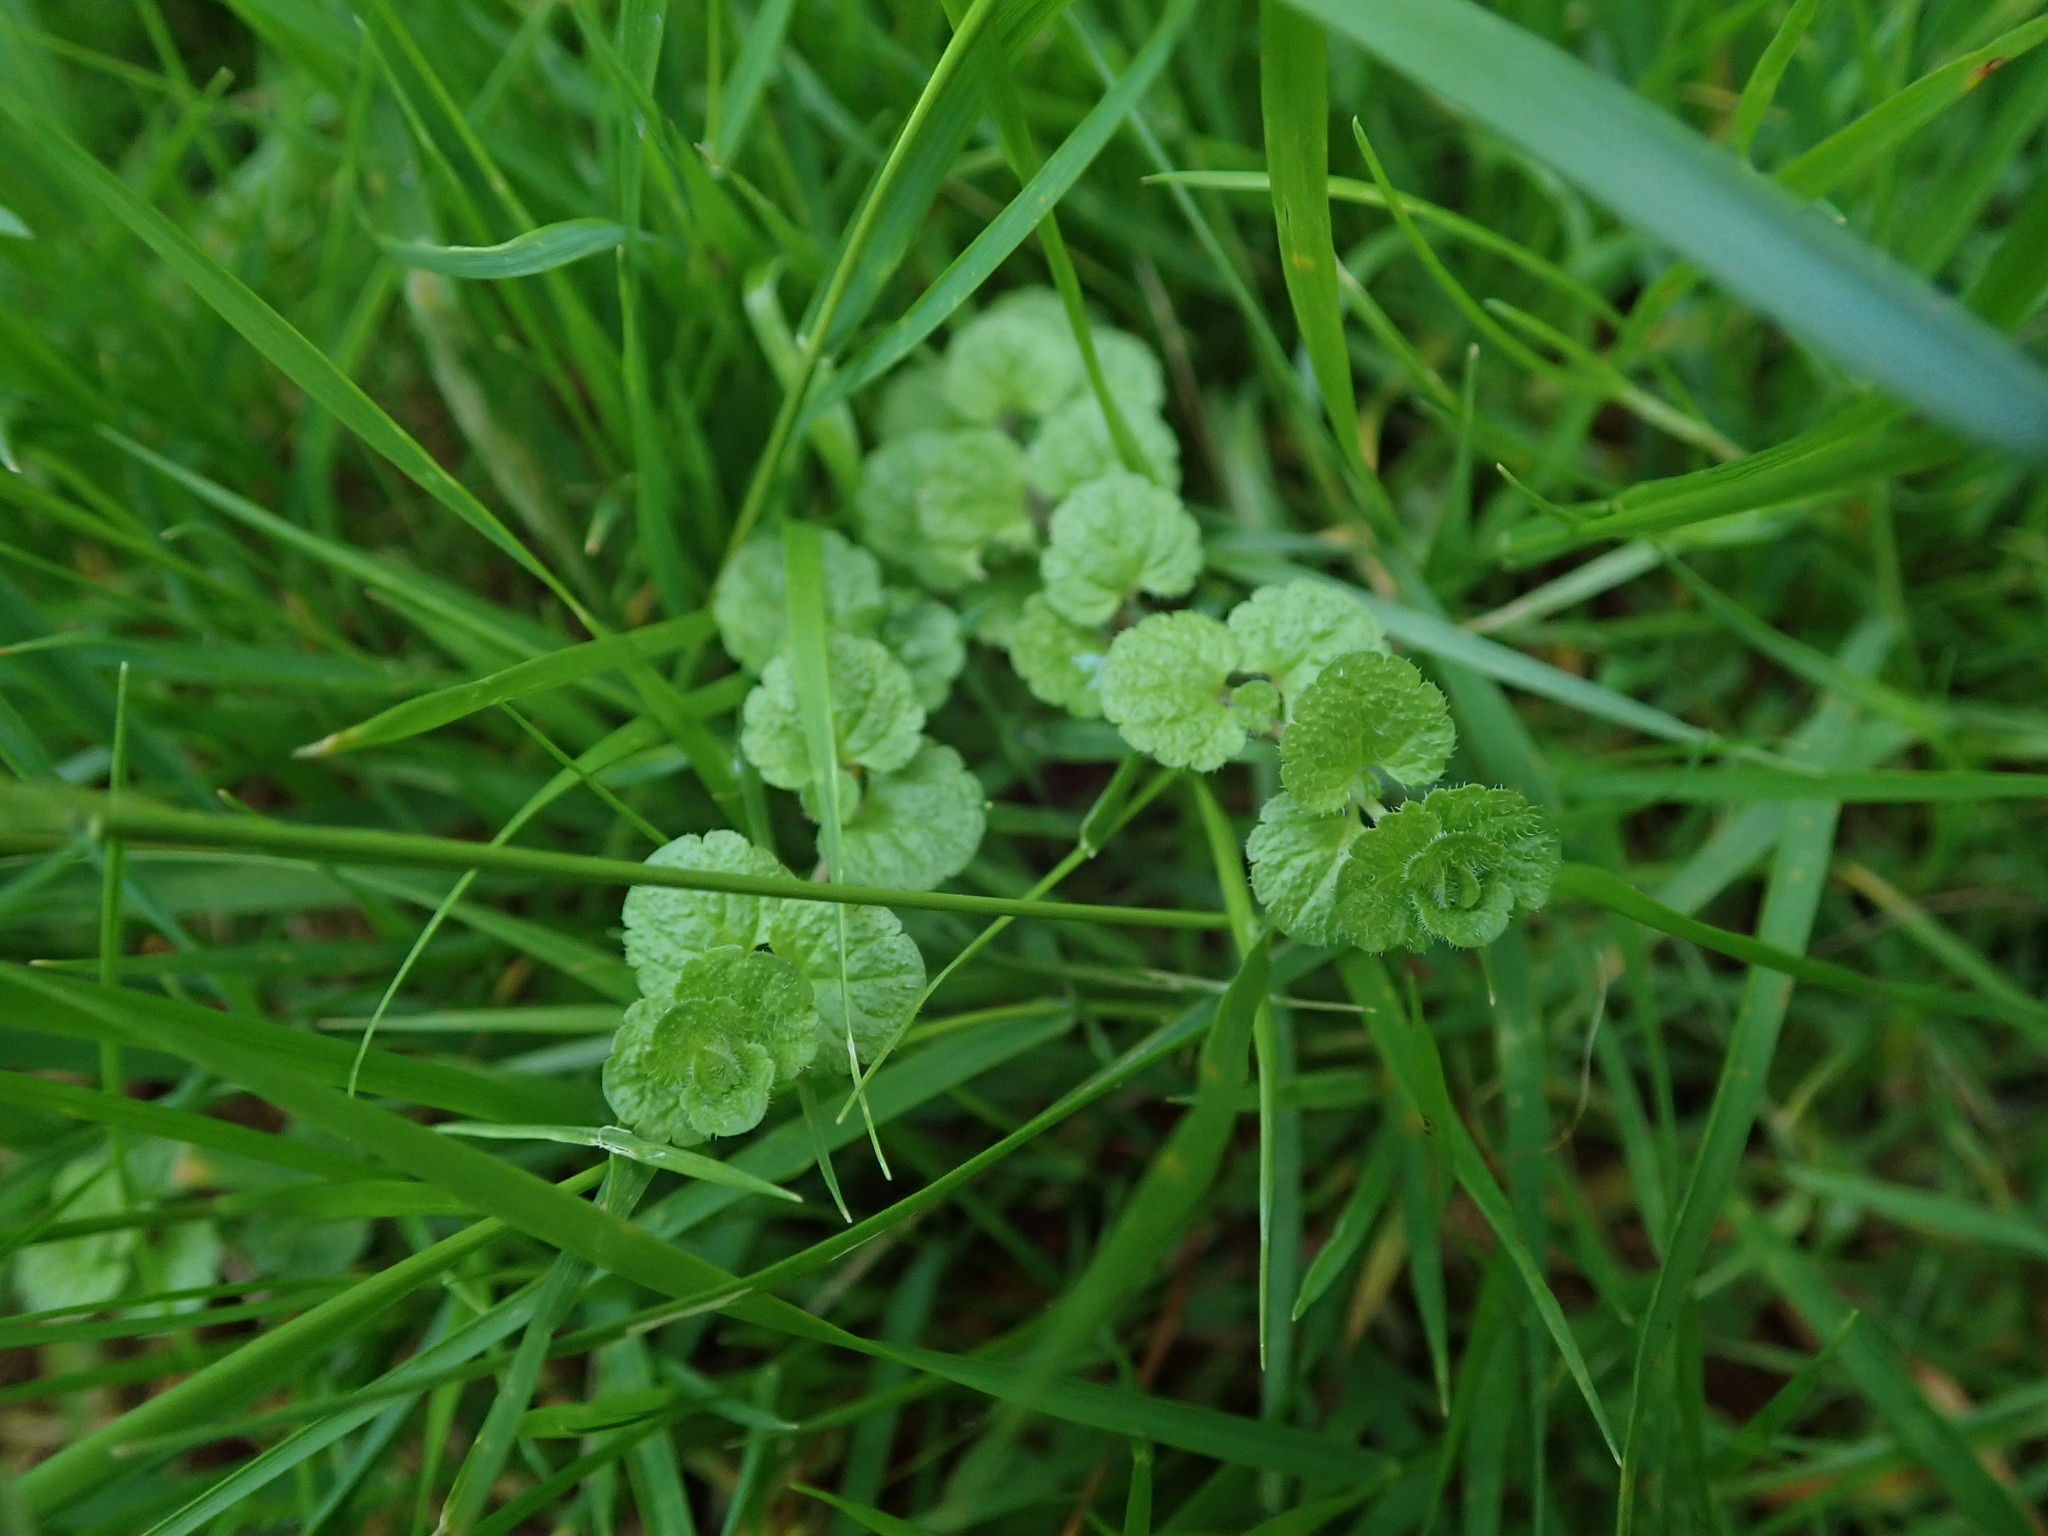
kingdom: Plantae
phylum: Tracheophyta
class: Magnoliopsida
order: Lamiales
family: Plantaginaceae
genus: Veronica
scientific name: Veronica filiformis
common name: Slender speedwell
